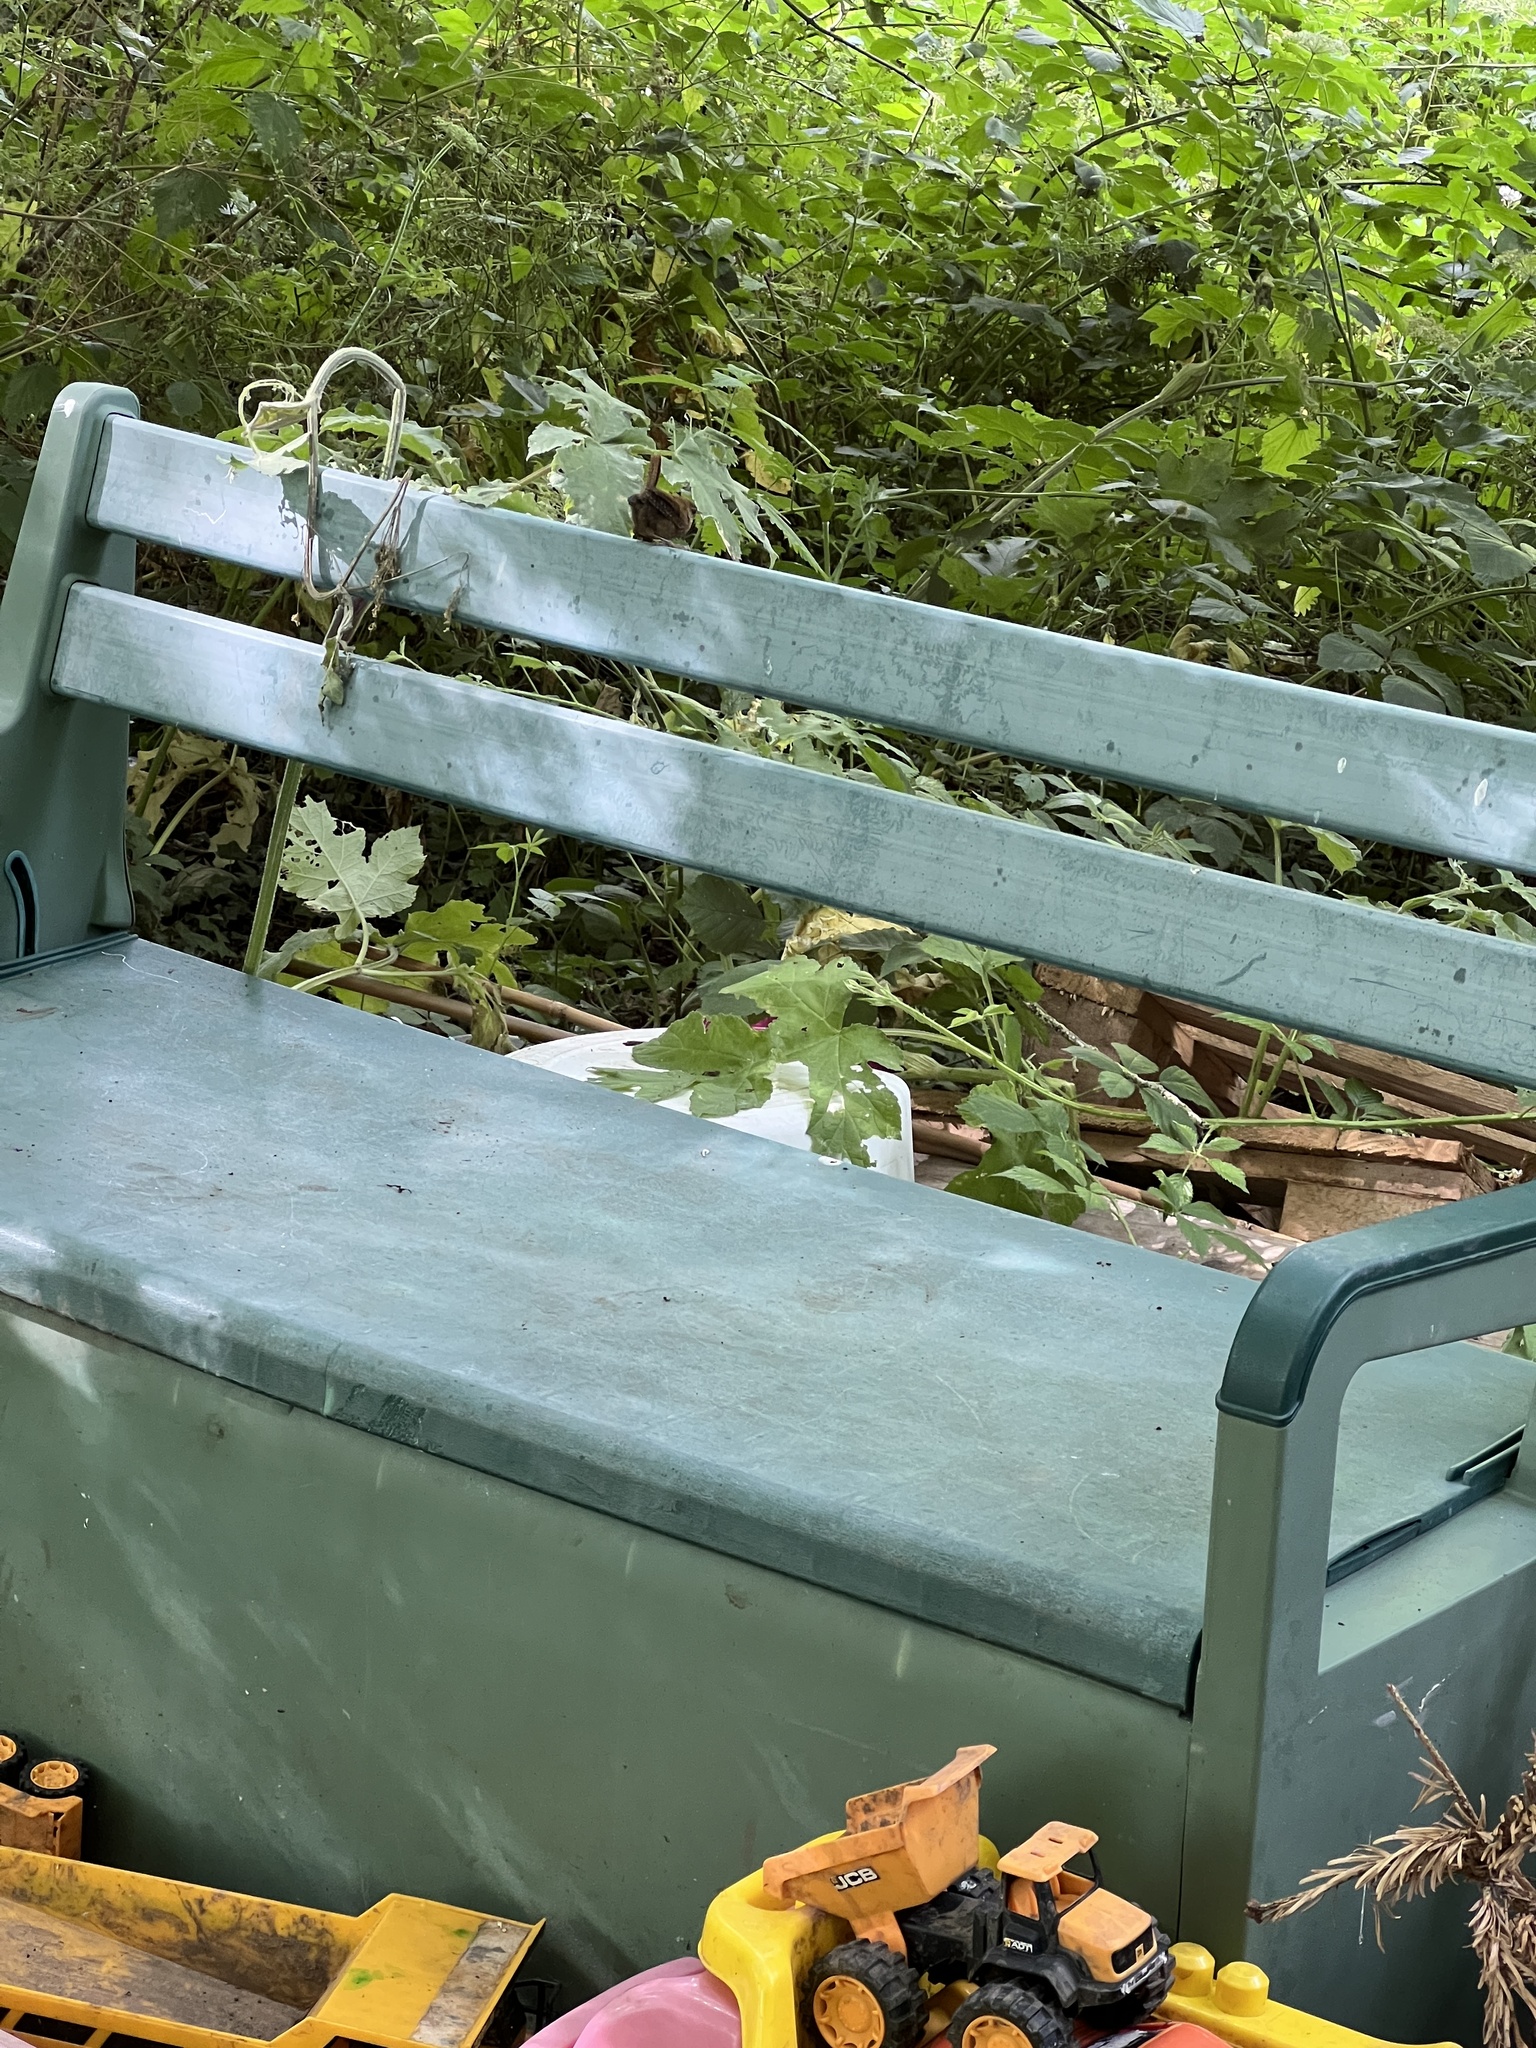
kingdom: Animalia
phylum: Chordata
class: Aves
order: Passeriformes
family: Troglodytidae
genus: Troglodytes
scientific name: Troglodytes troglodytes
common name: Eurasian wren
